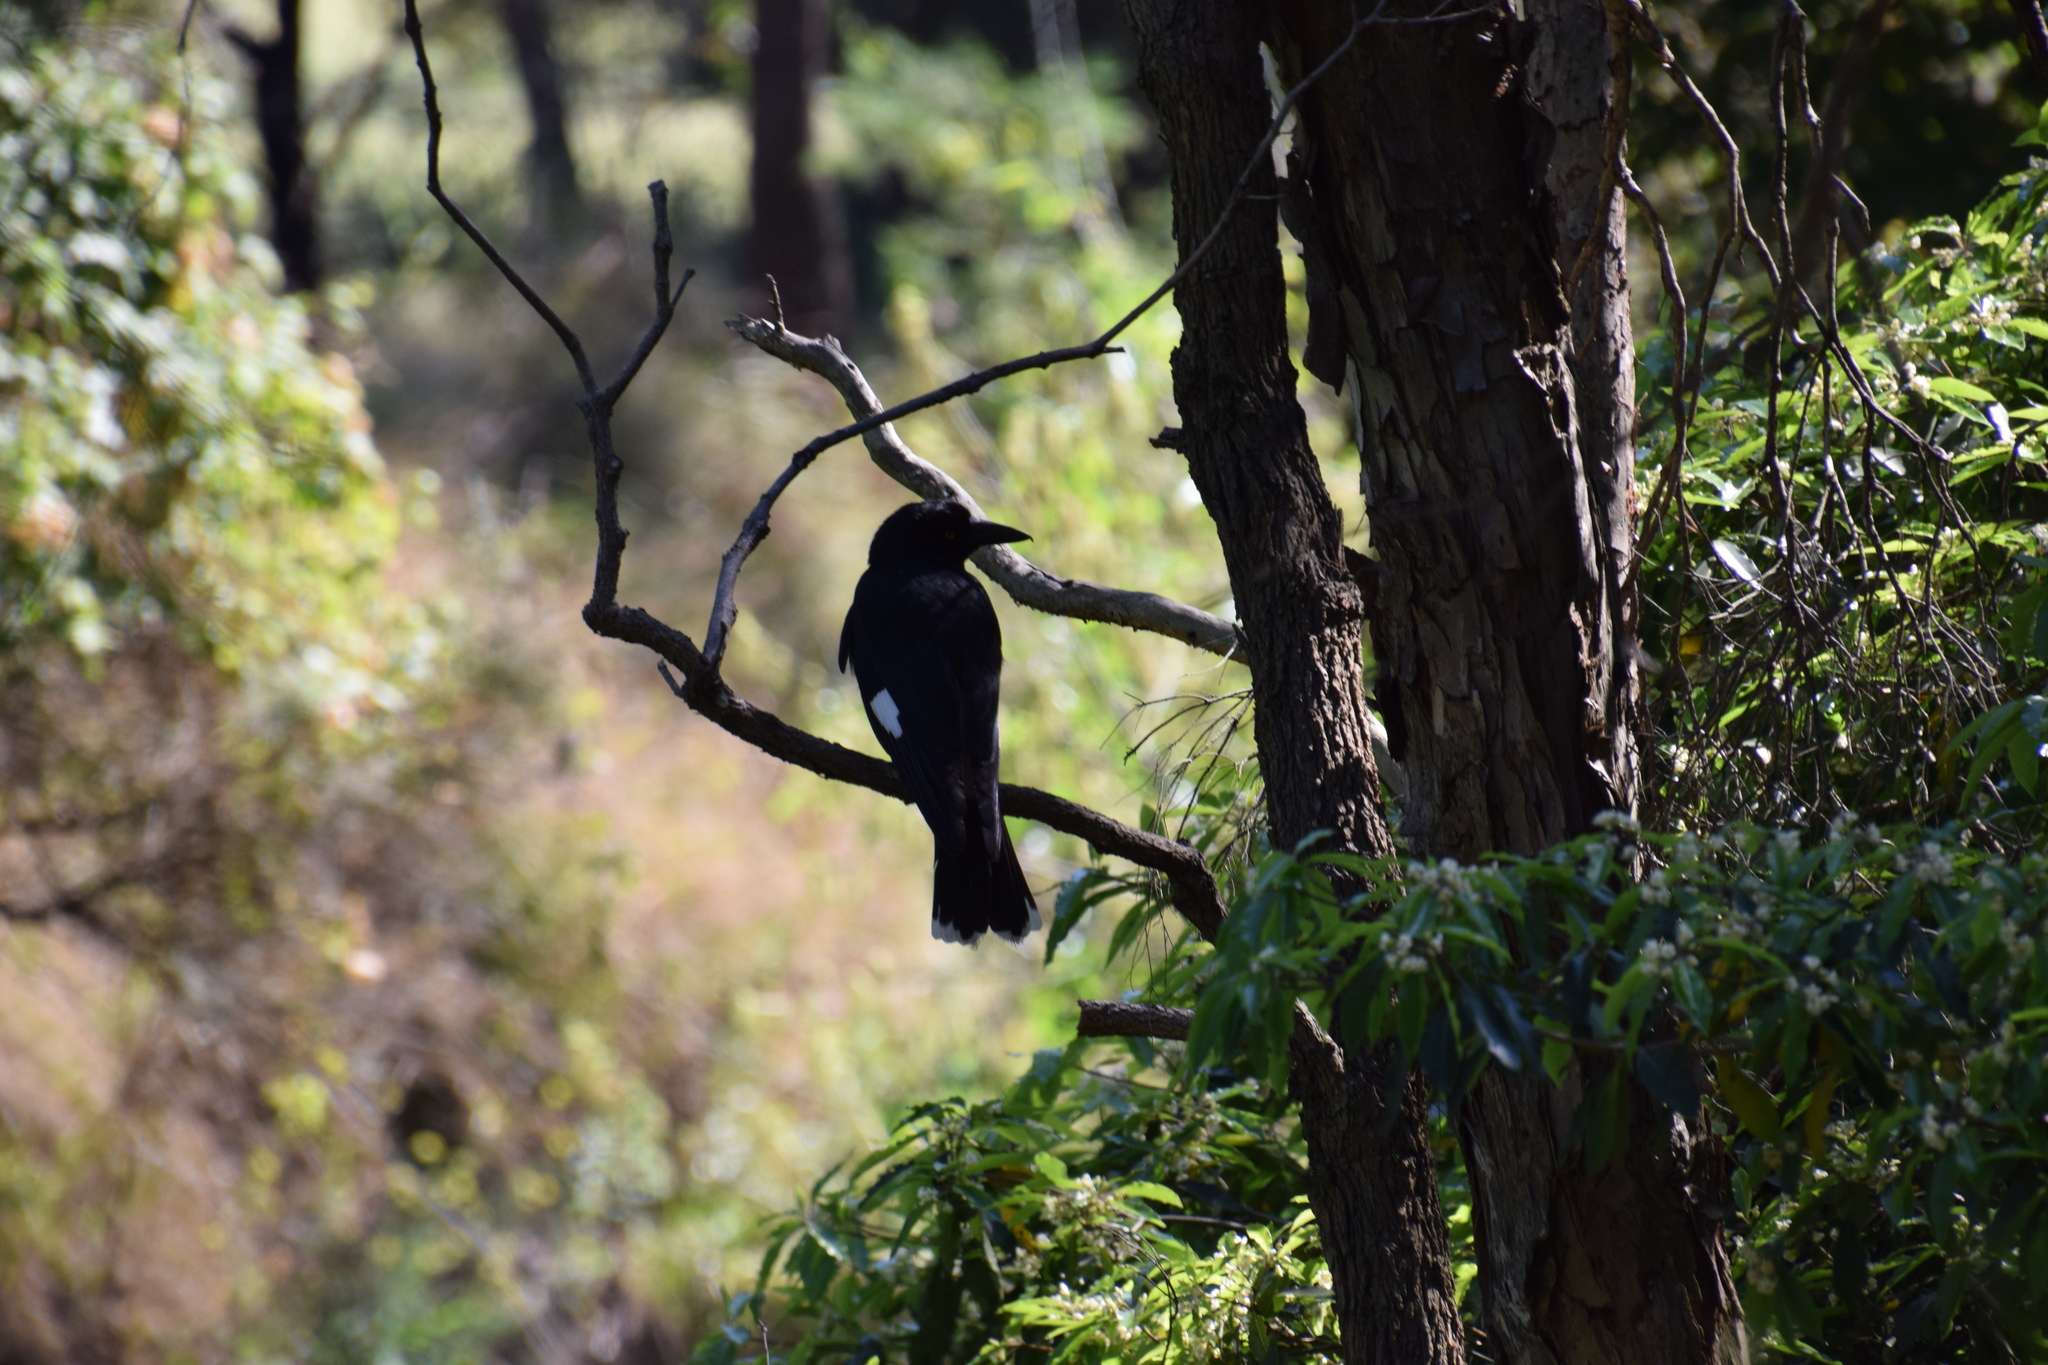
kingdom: Animalia
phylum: Chordata
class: Aves
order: Passeriformes
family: Cracticidae
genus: Strepera
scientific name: Strepera graculina
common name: Pied currawong
